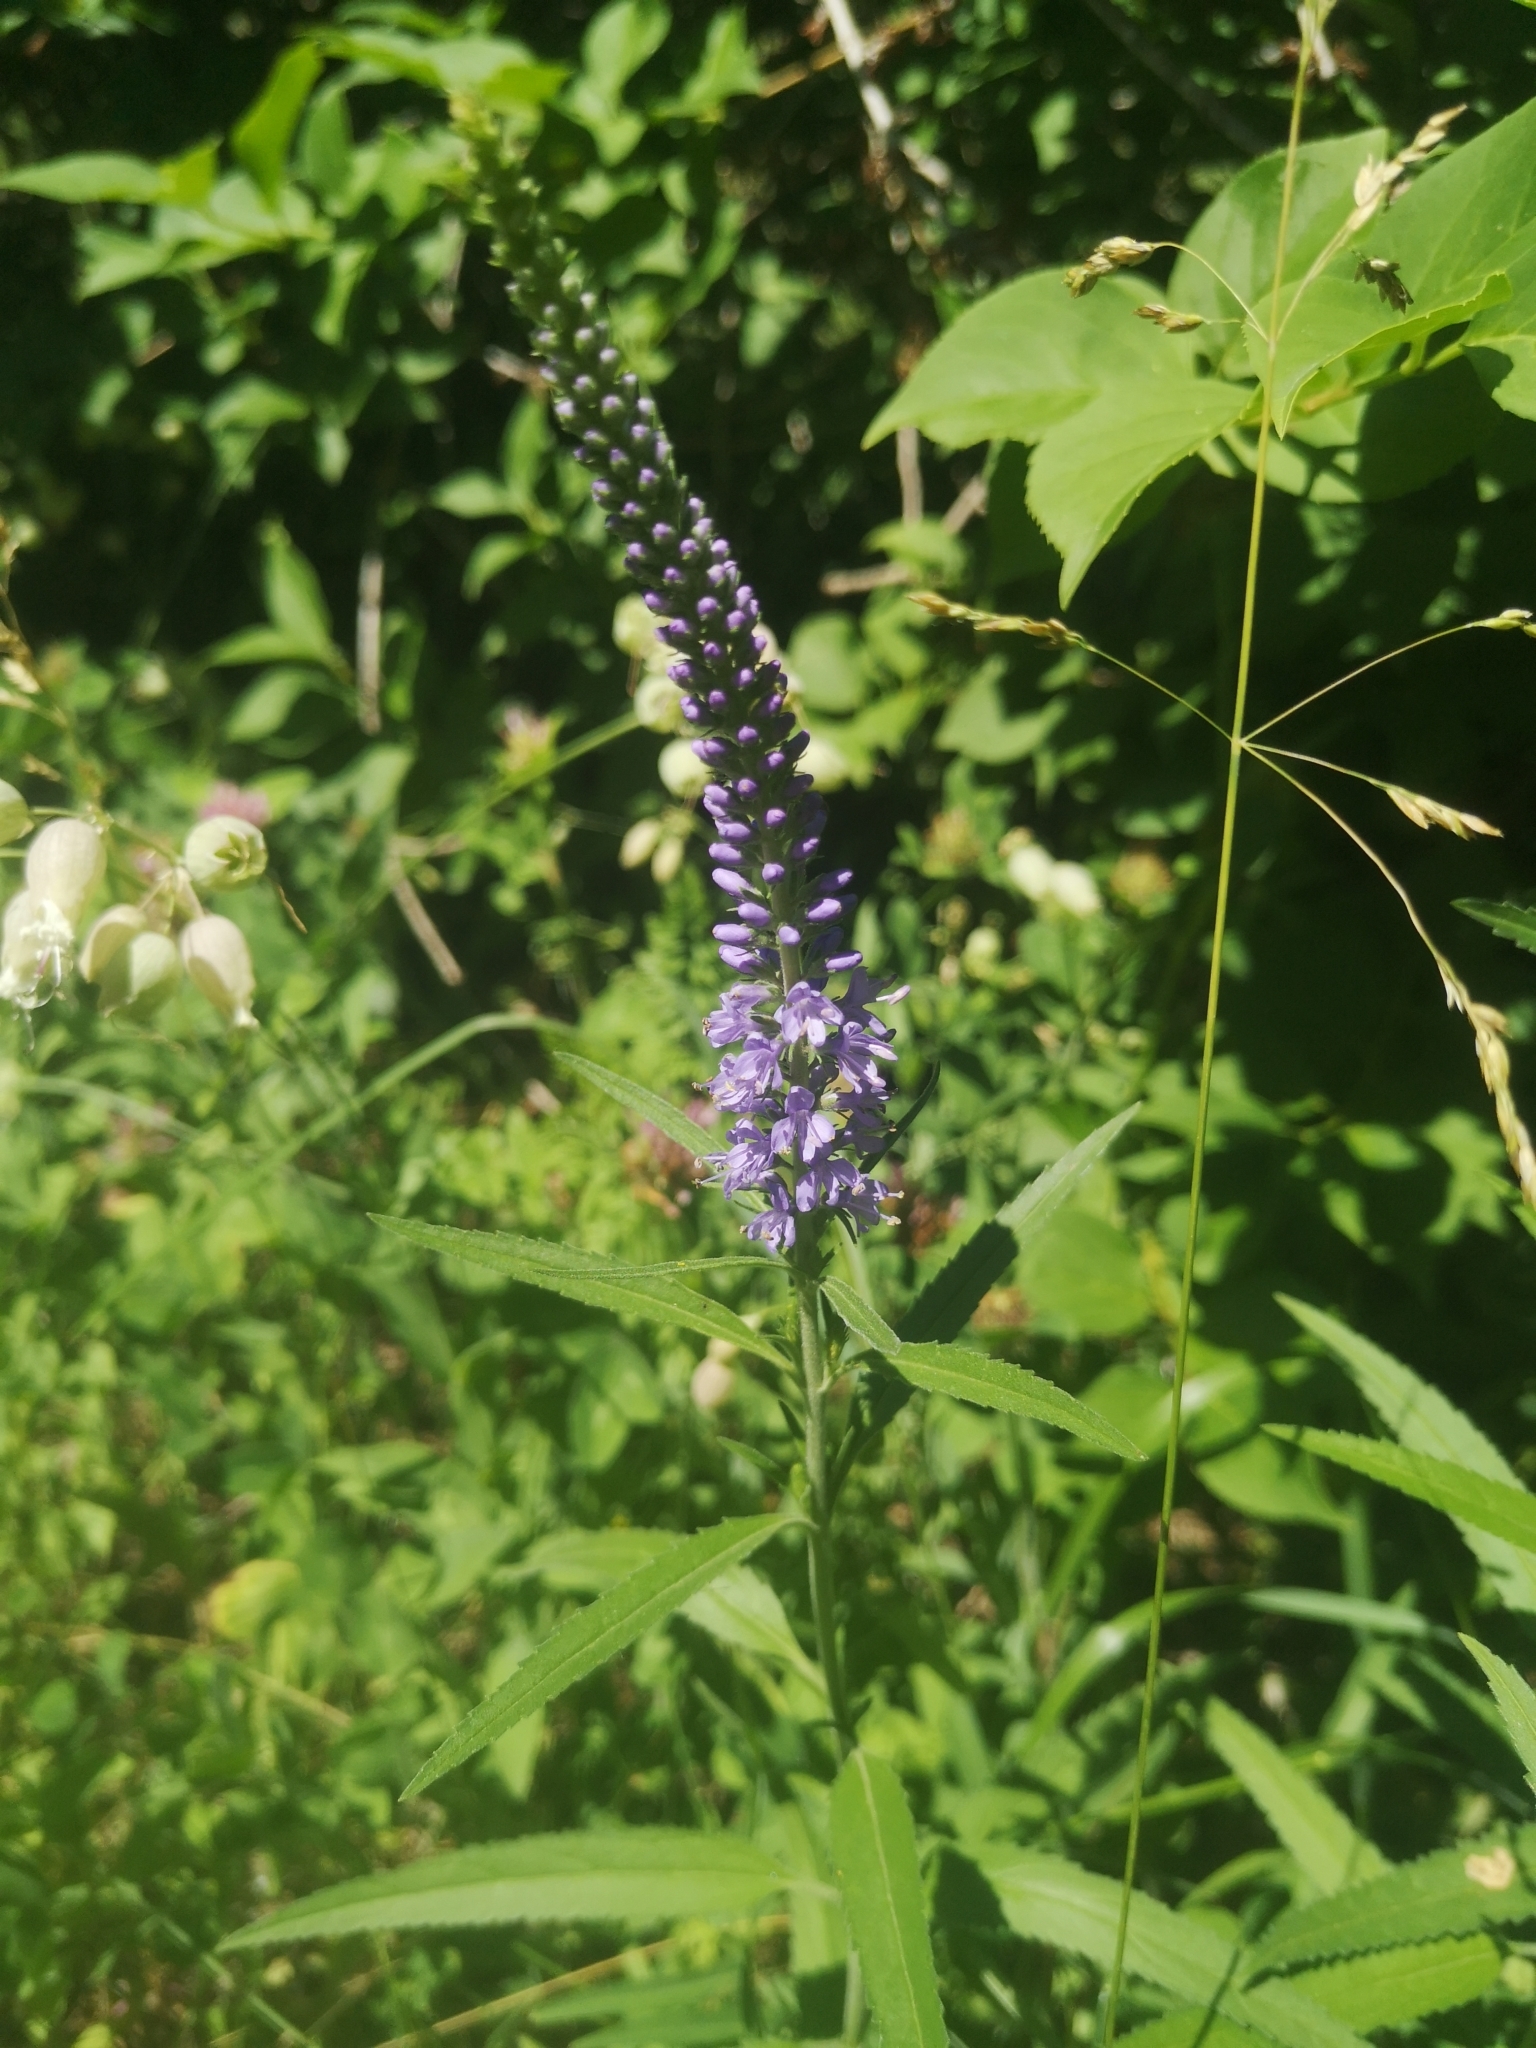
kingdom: Plantae
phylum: Tracheophyta
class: Magnoliopsida
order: Lamiales
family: Plantaginaceae
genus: Veronica
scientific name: Veronica longifolia
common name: Garden speedwell
